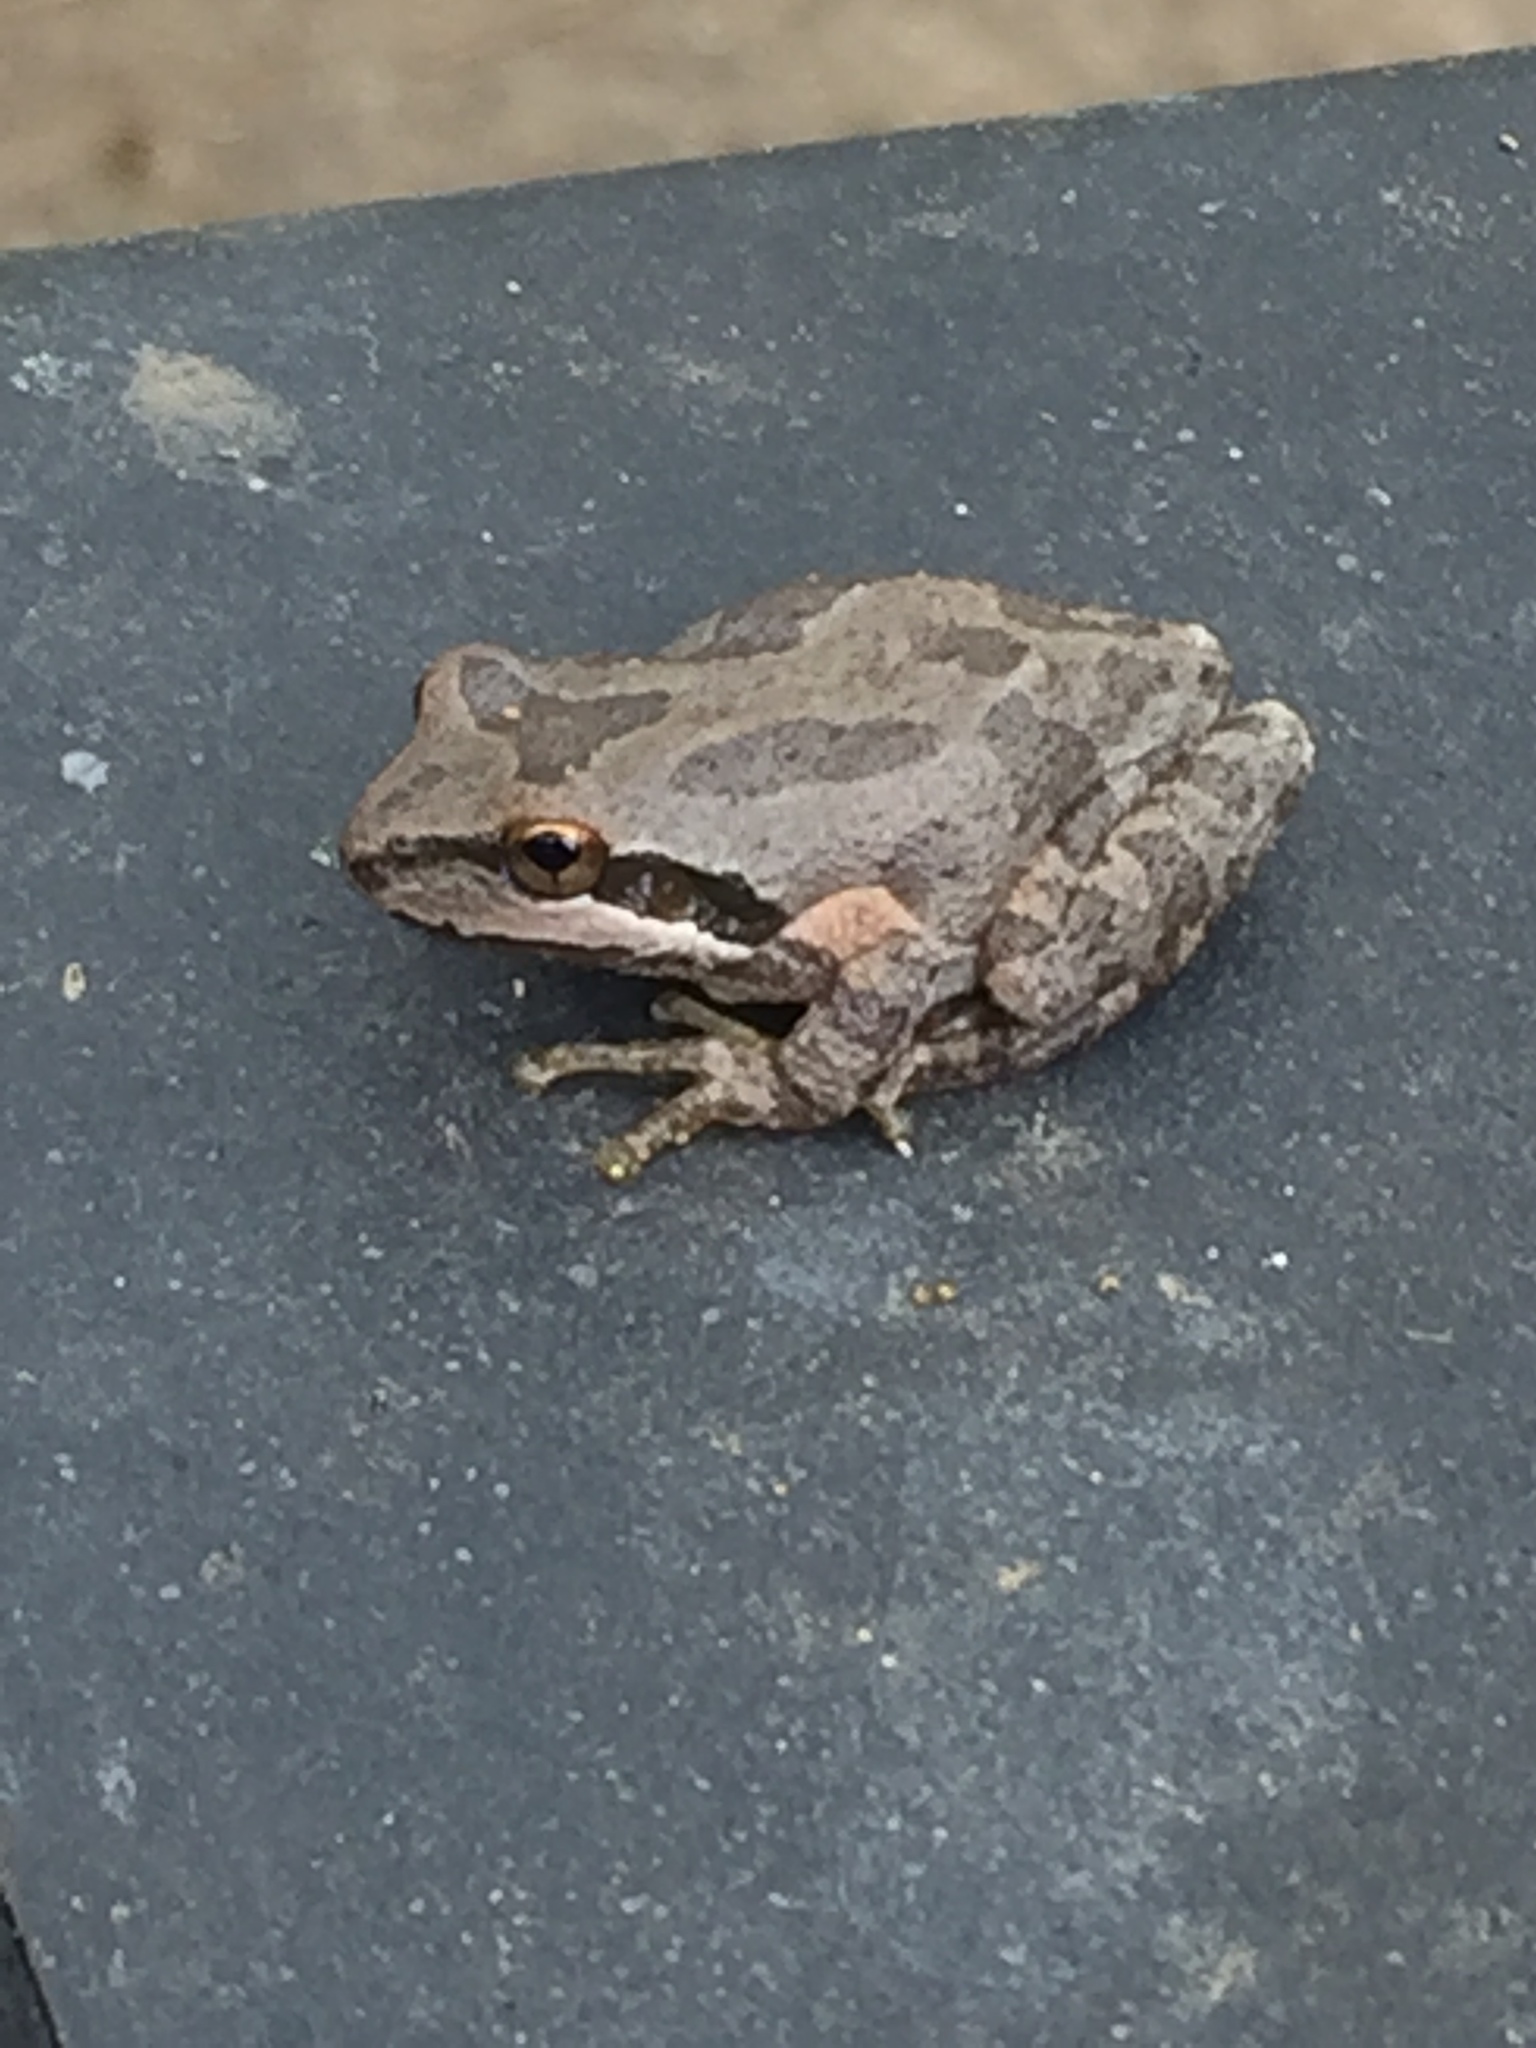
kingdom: Animalia
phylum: Chordata
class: Amphibia
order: Anura
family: Hylidae
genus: Pseudacris
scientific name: Pseudacris regilla
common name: Pacific chorus frog
